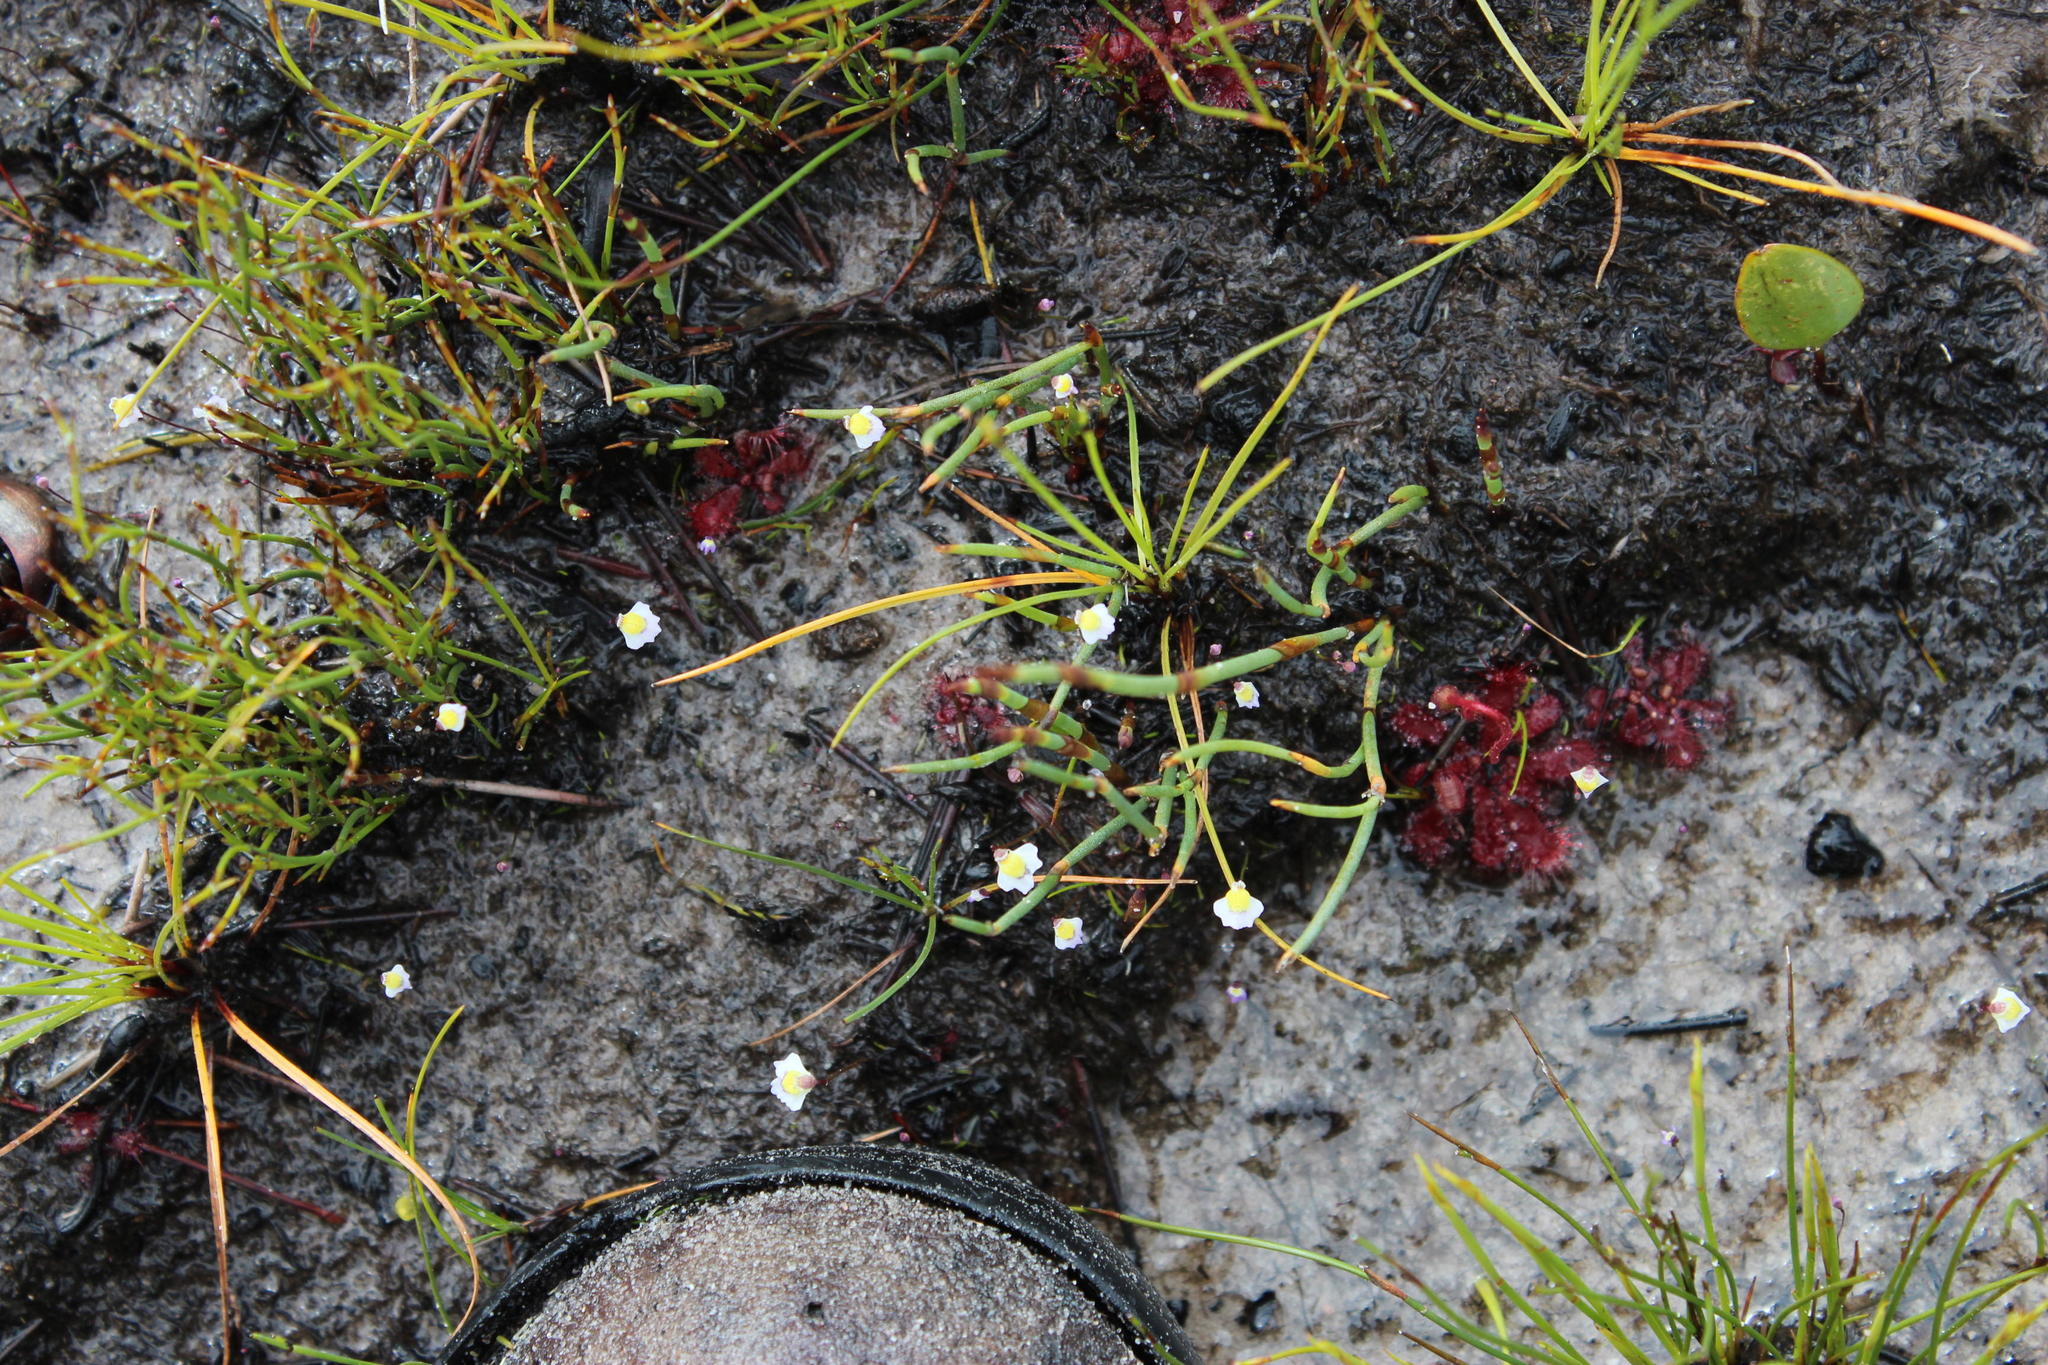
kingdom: Plantae
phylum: Tracheophyta
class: Magnoliopsida
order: Lamiales
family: Lentibulariaceae
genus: Utricularia
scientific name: Utricularia bisquamata
